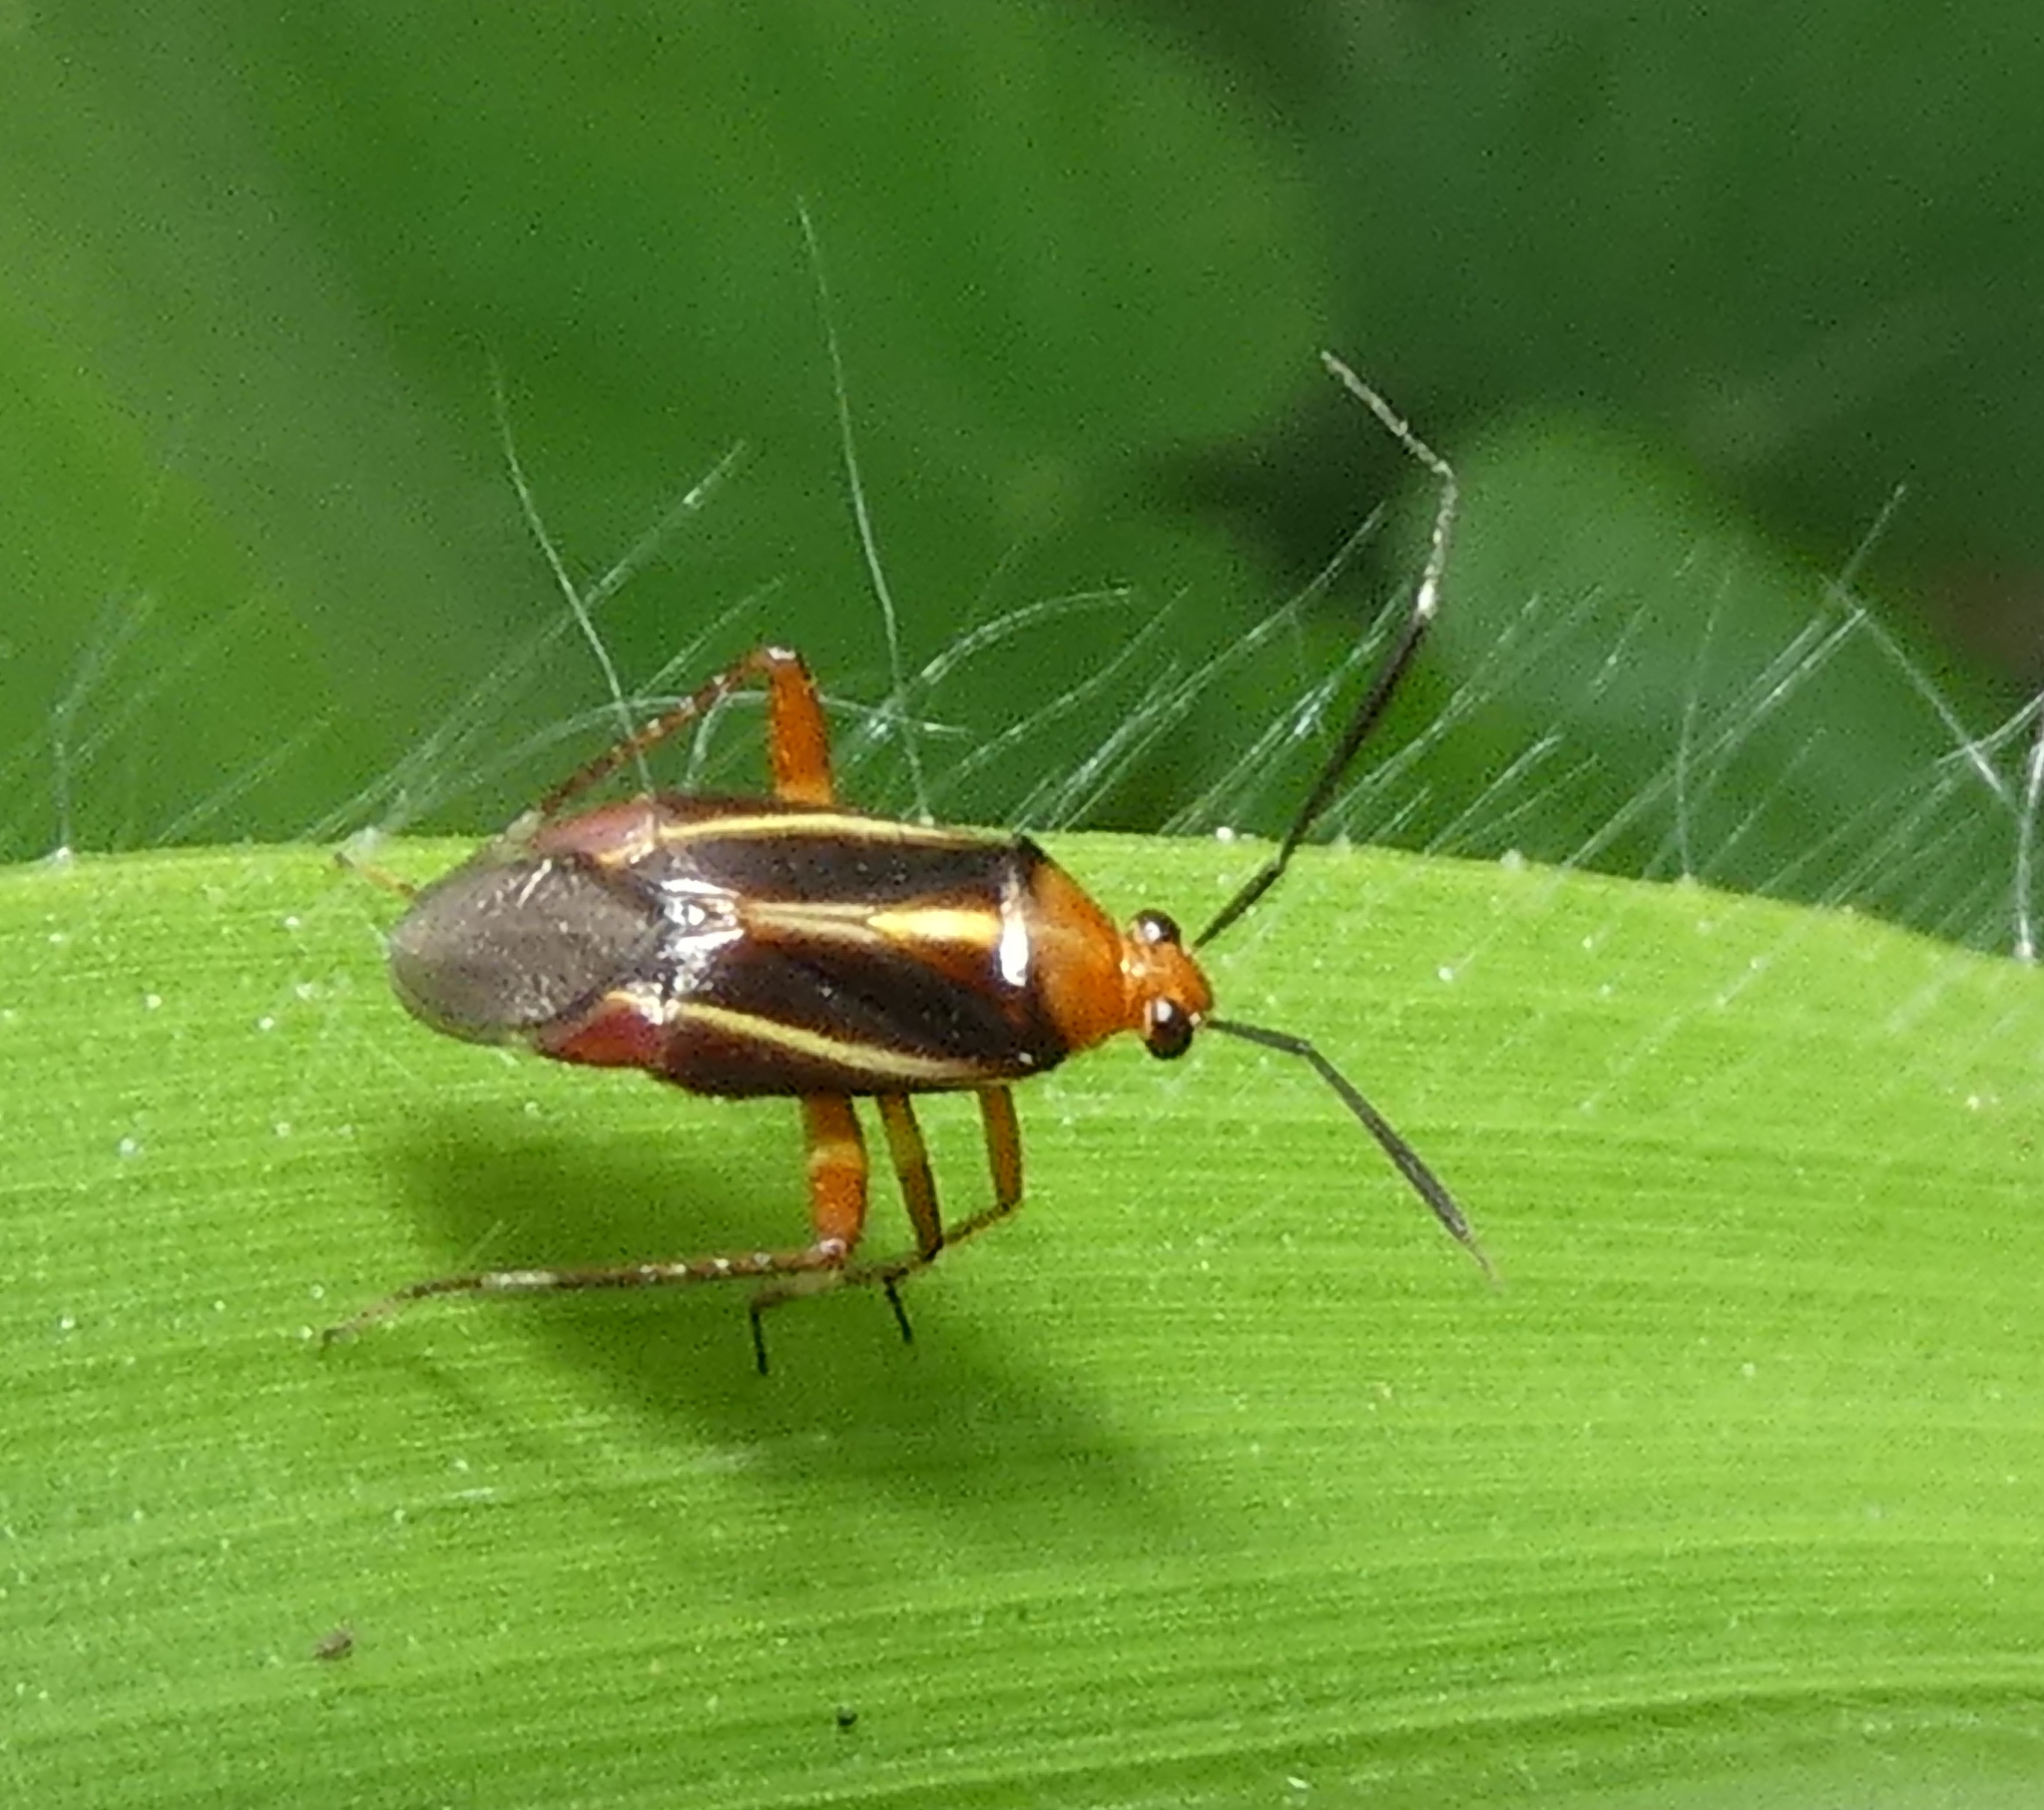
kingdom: Animalia
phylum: Arthropoda
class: Insecta
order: Hemiptera
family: Miridae
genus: Horciasinus
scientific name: Horciasinus signoreti
